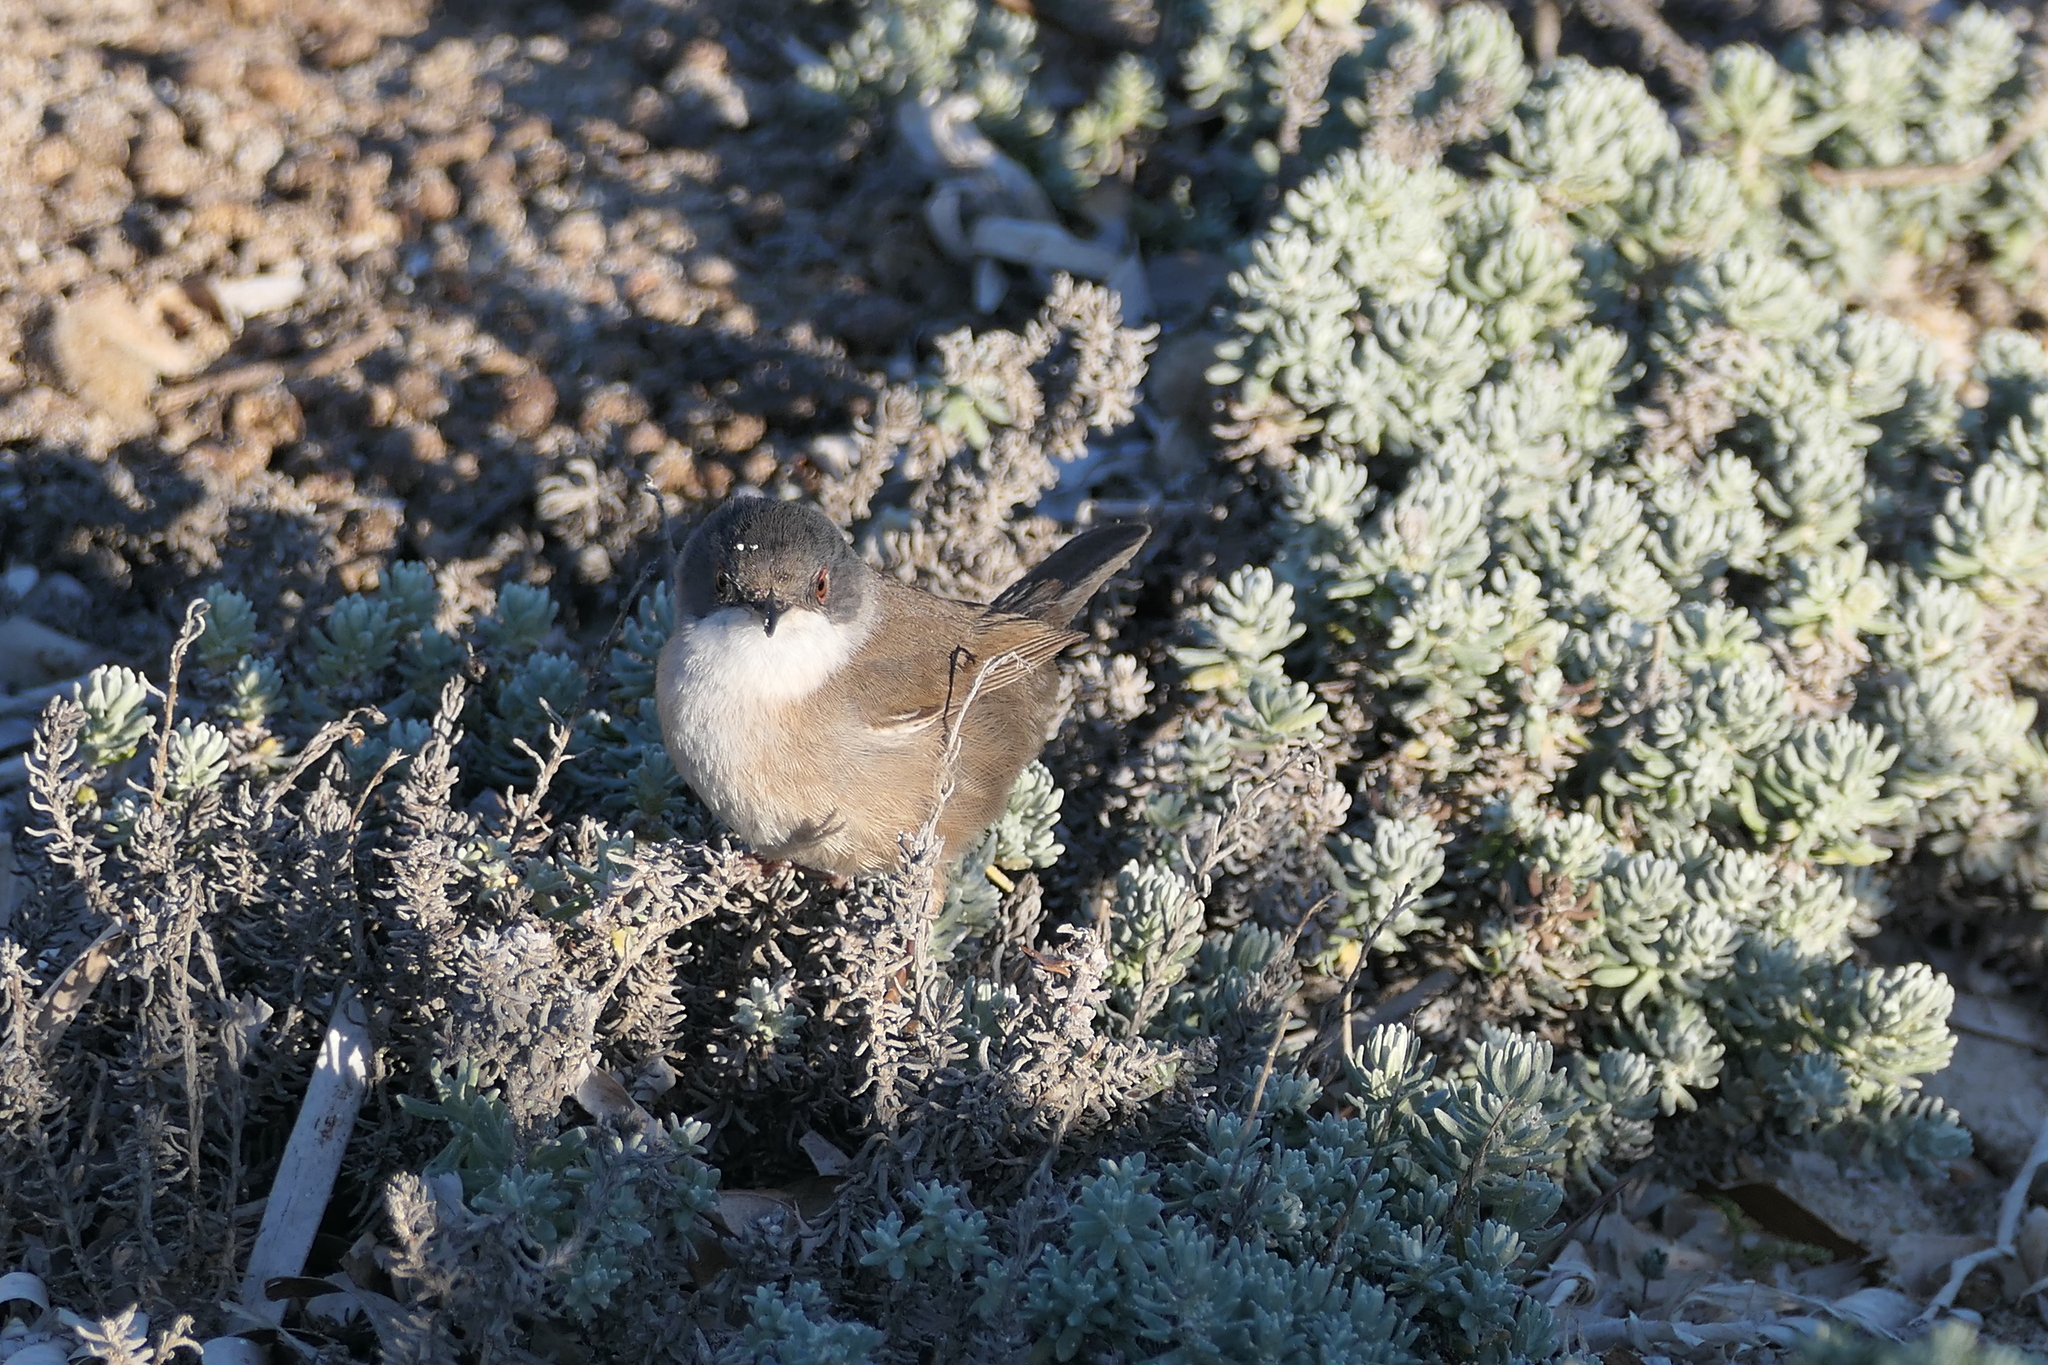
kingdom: Animalia
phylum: Chordata
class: Aves
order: Passeriformes
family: Sylviidae
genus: Curruca
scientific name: Curruca melanocephala
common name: Sardinian warbler
